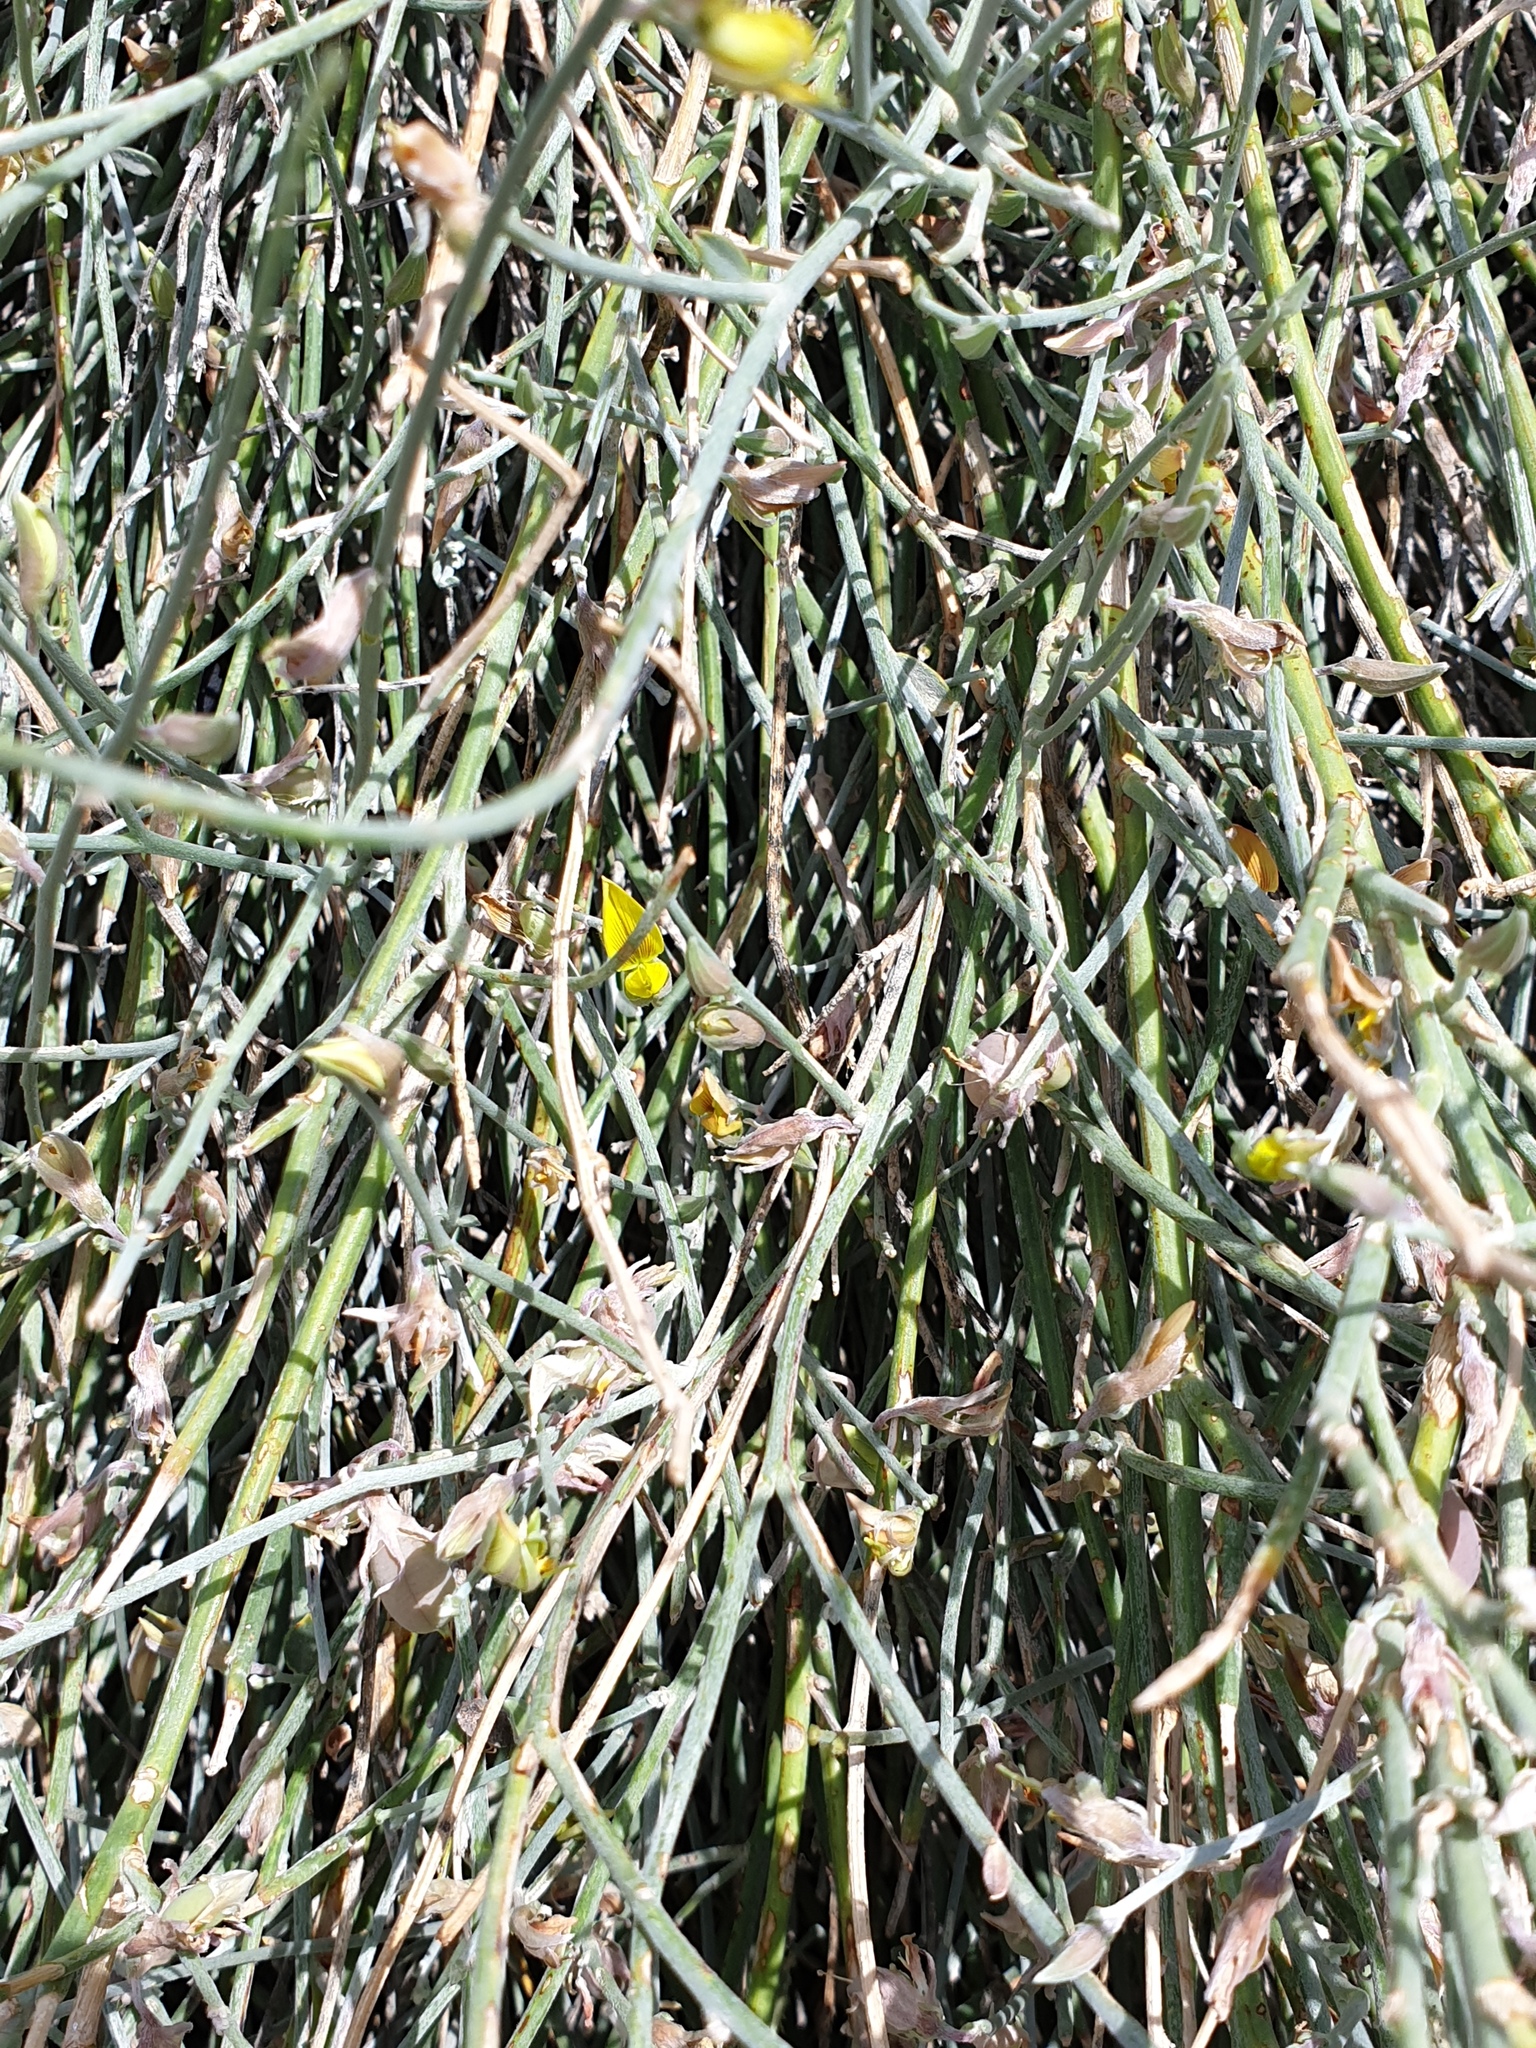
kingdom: Plantae
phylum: Tracheophyta
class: Magnoliopsida
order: Fabales
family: Fabaceae
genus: Crotalaria
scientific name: Crotalaria aegyptiaca
